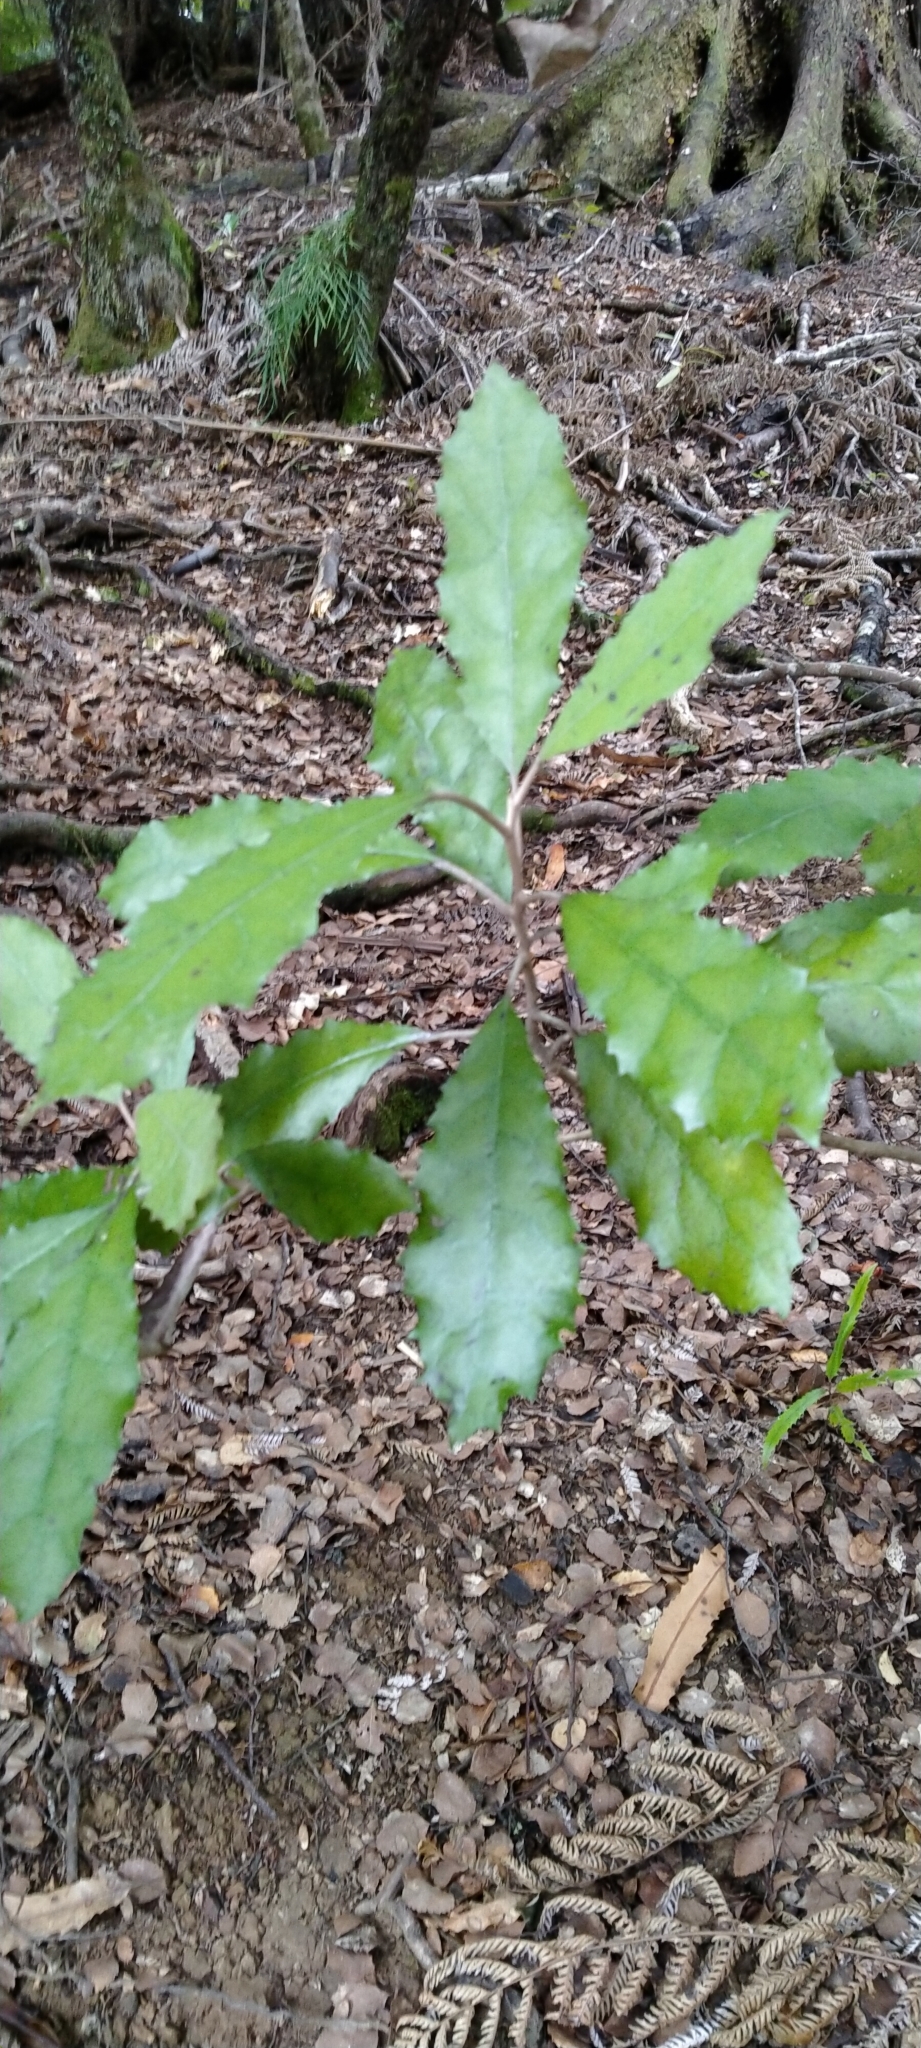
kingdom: Plantae
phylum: Tracheophyta
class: Magnoliopsida
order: Asterales
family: Asteraceae
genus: Olearia
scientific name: Olearia rani
